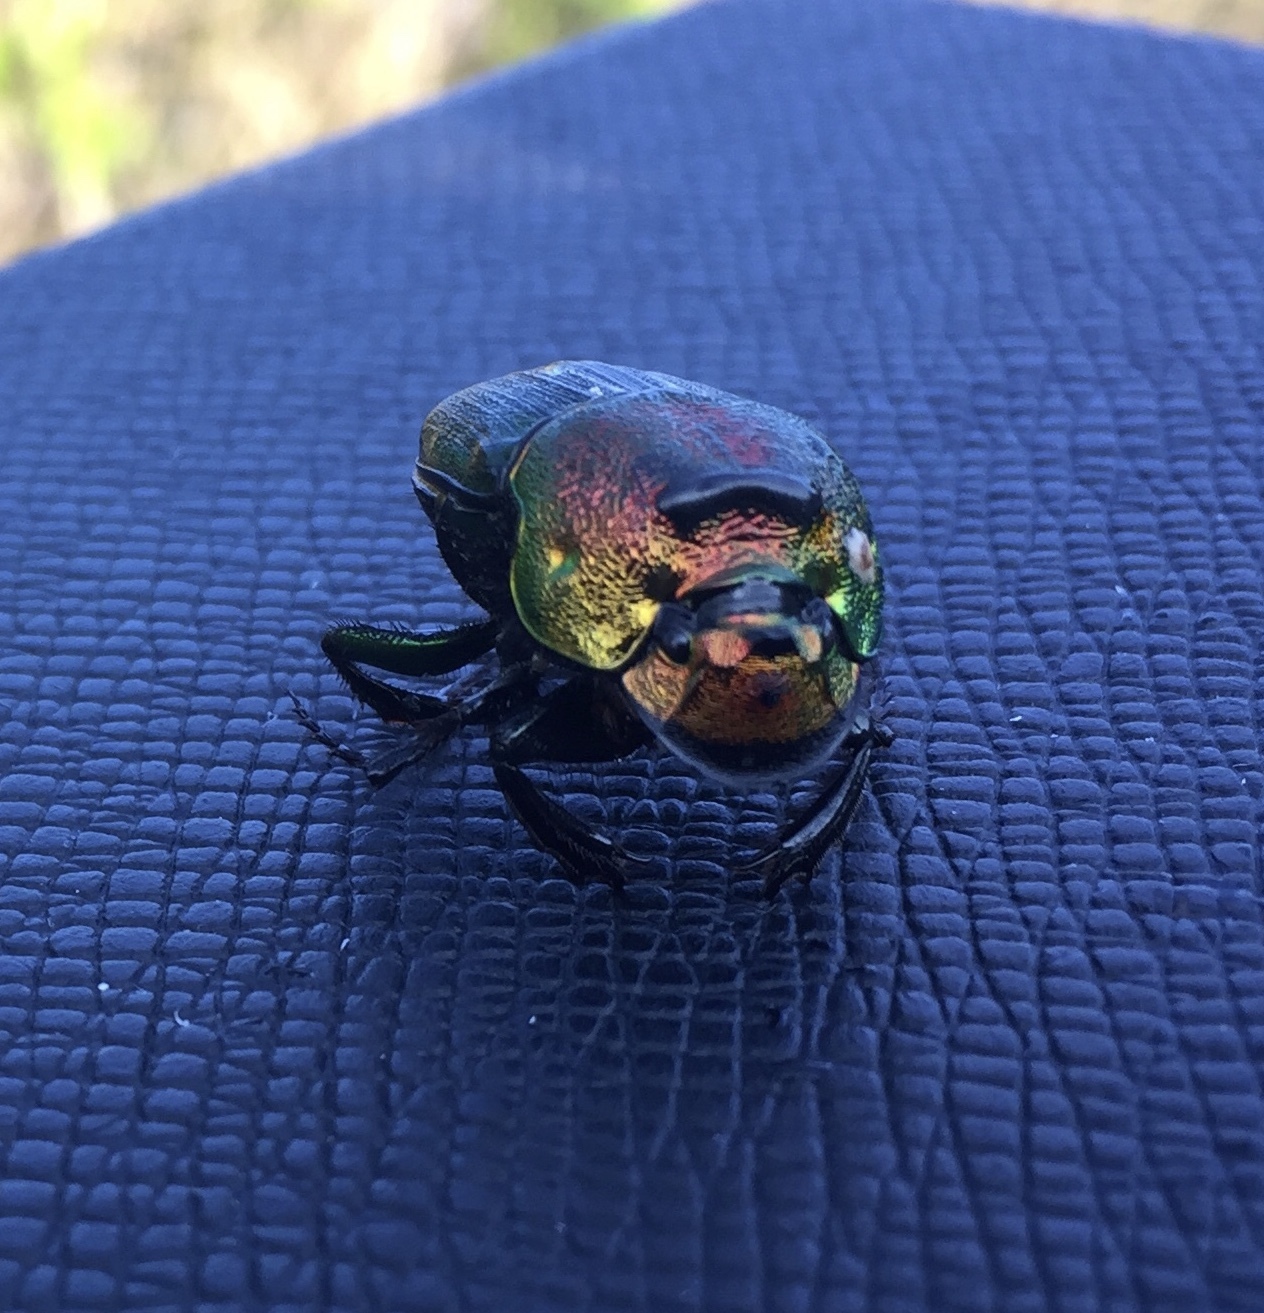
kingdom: Animalia
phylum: Arthropoda
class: Insecta
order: Coleoptera
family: Scarabaeidae
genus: Phanaeus
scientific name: Phanaeus vindex
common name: Rainbow scarab
